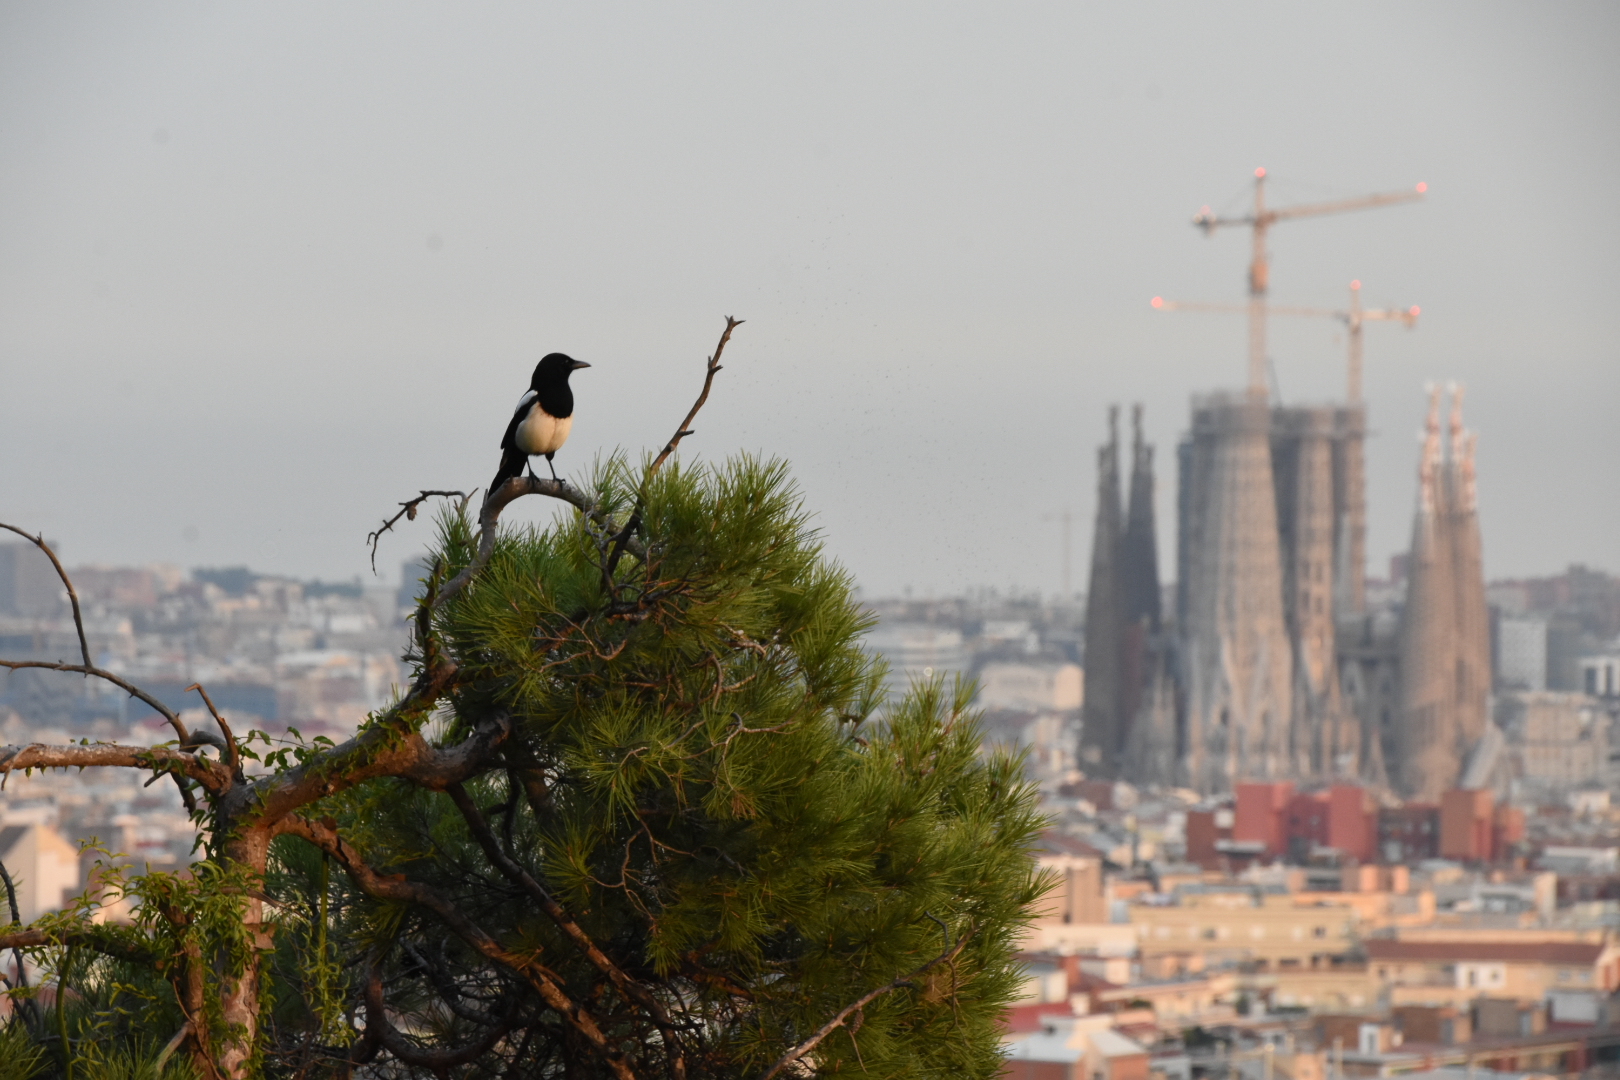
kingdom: Animalia
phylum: Chordata
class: Aves
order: Passeriformes
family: Corvidae
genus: Pica
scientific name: Pica pica
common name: Eurasian magpie
